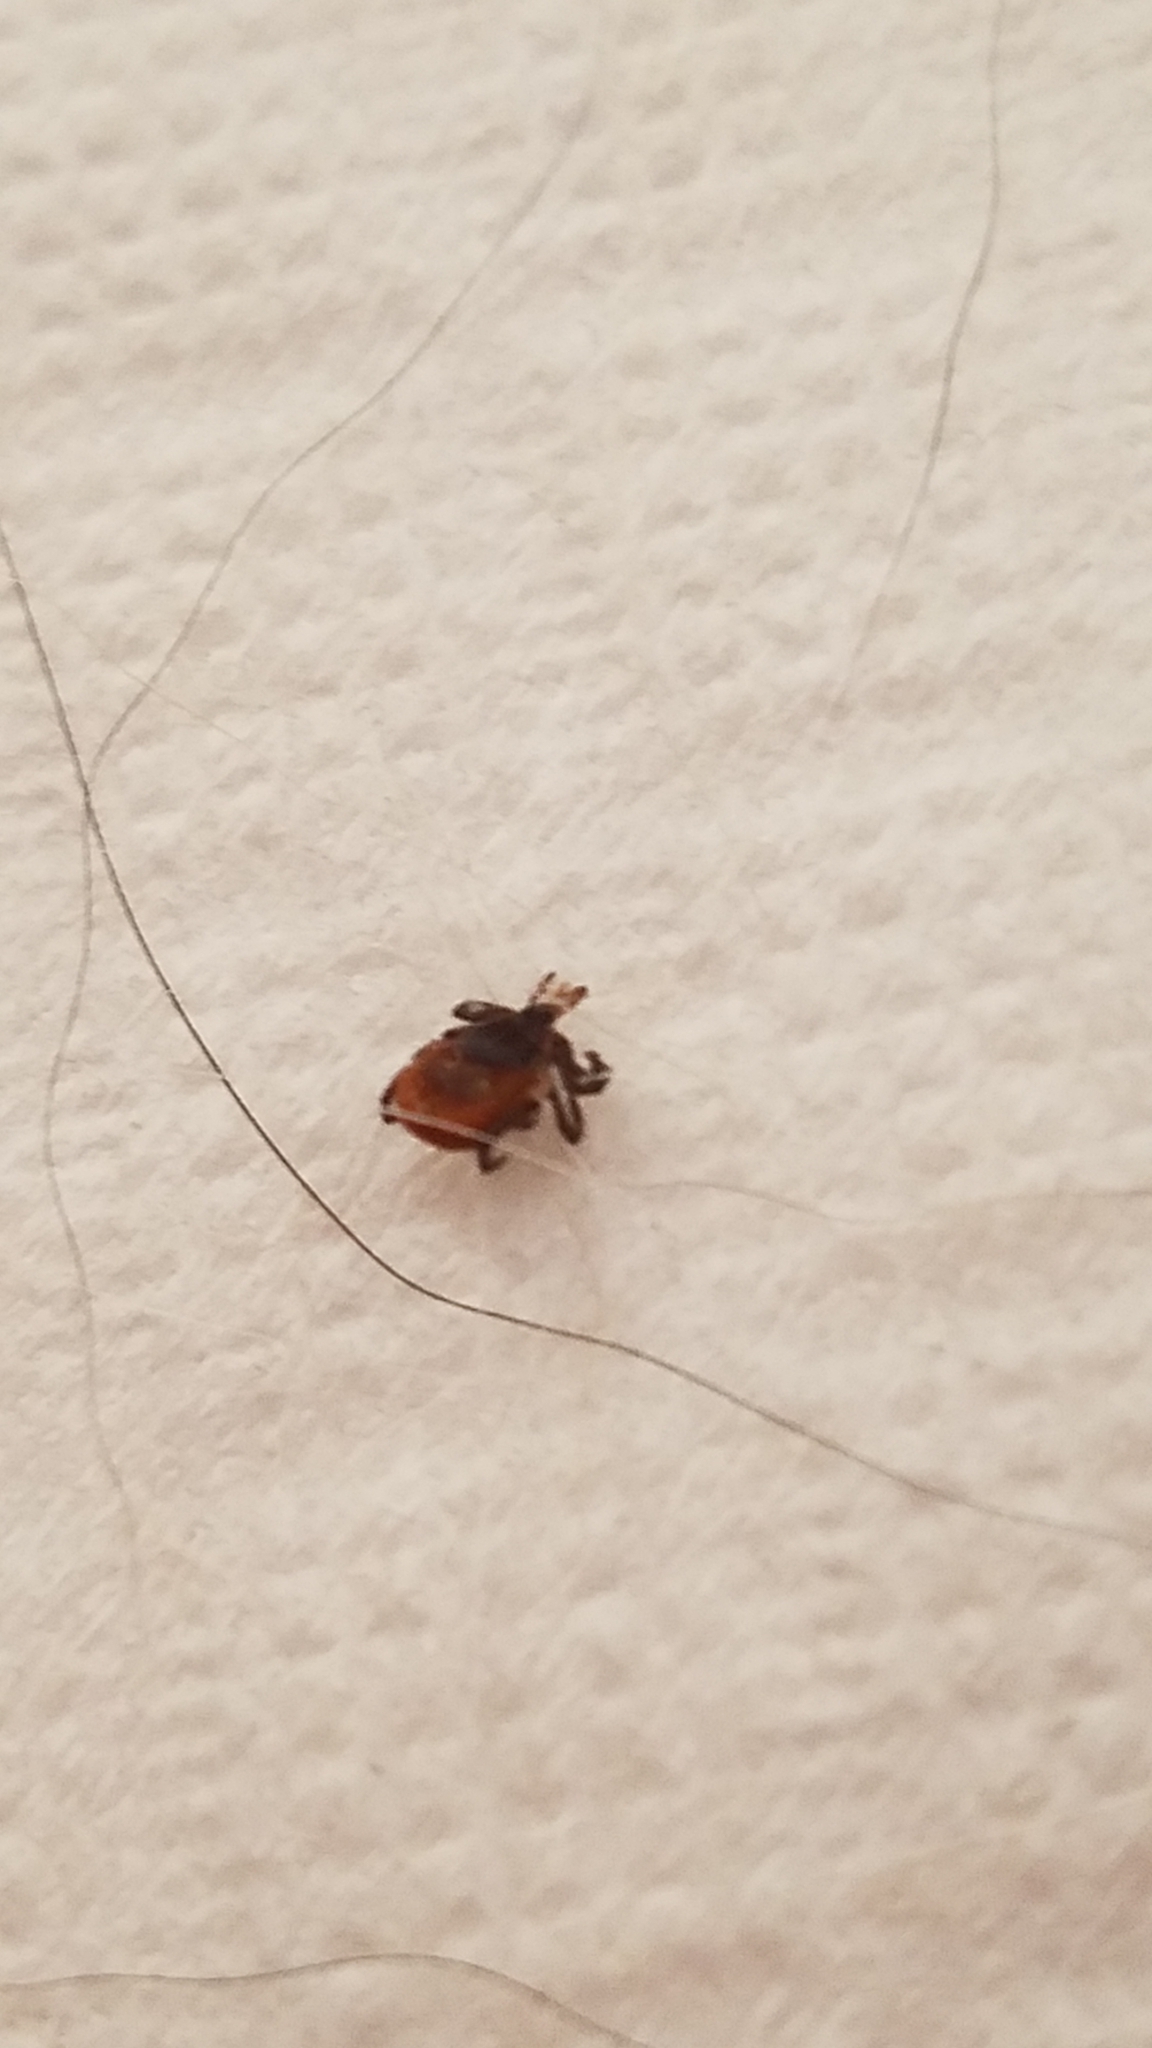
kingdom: Animalia
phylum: Arthropoda
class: Arachnida
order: Ixodida
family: Ixodidae
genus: Ixodes
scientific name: Ixodes scapularis
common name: Black legged tick
